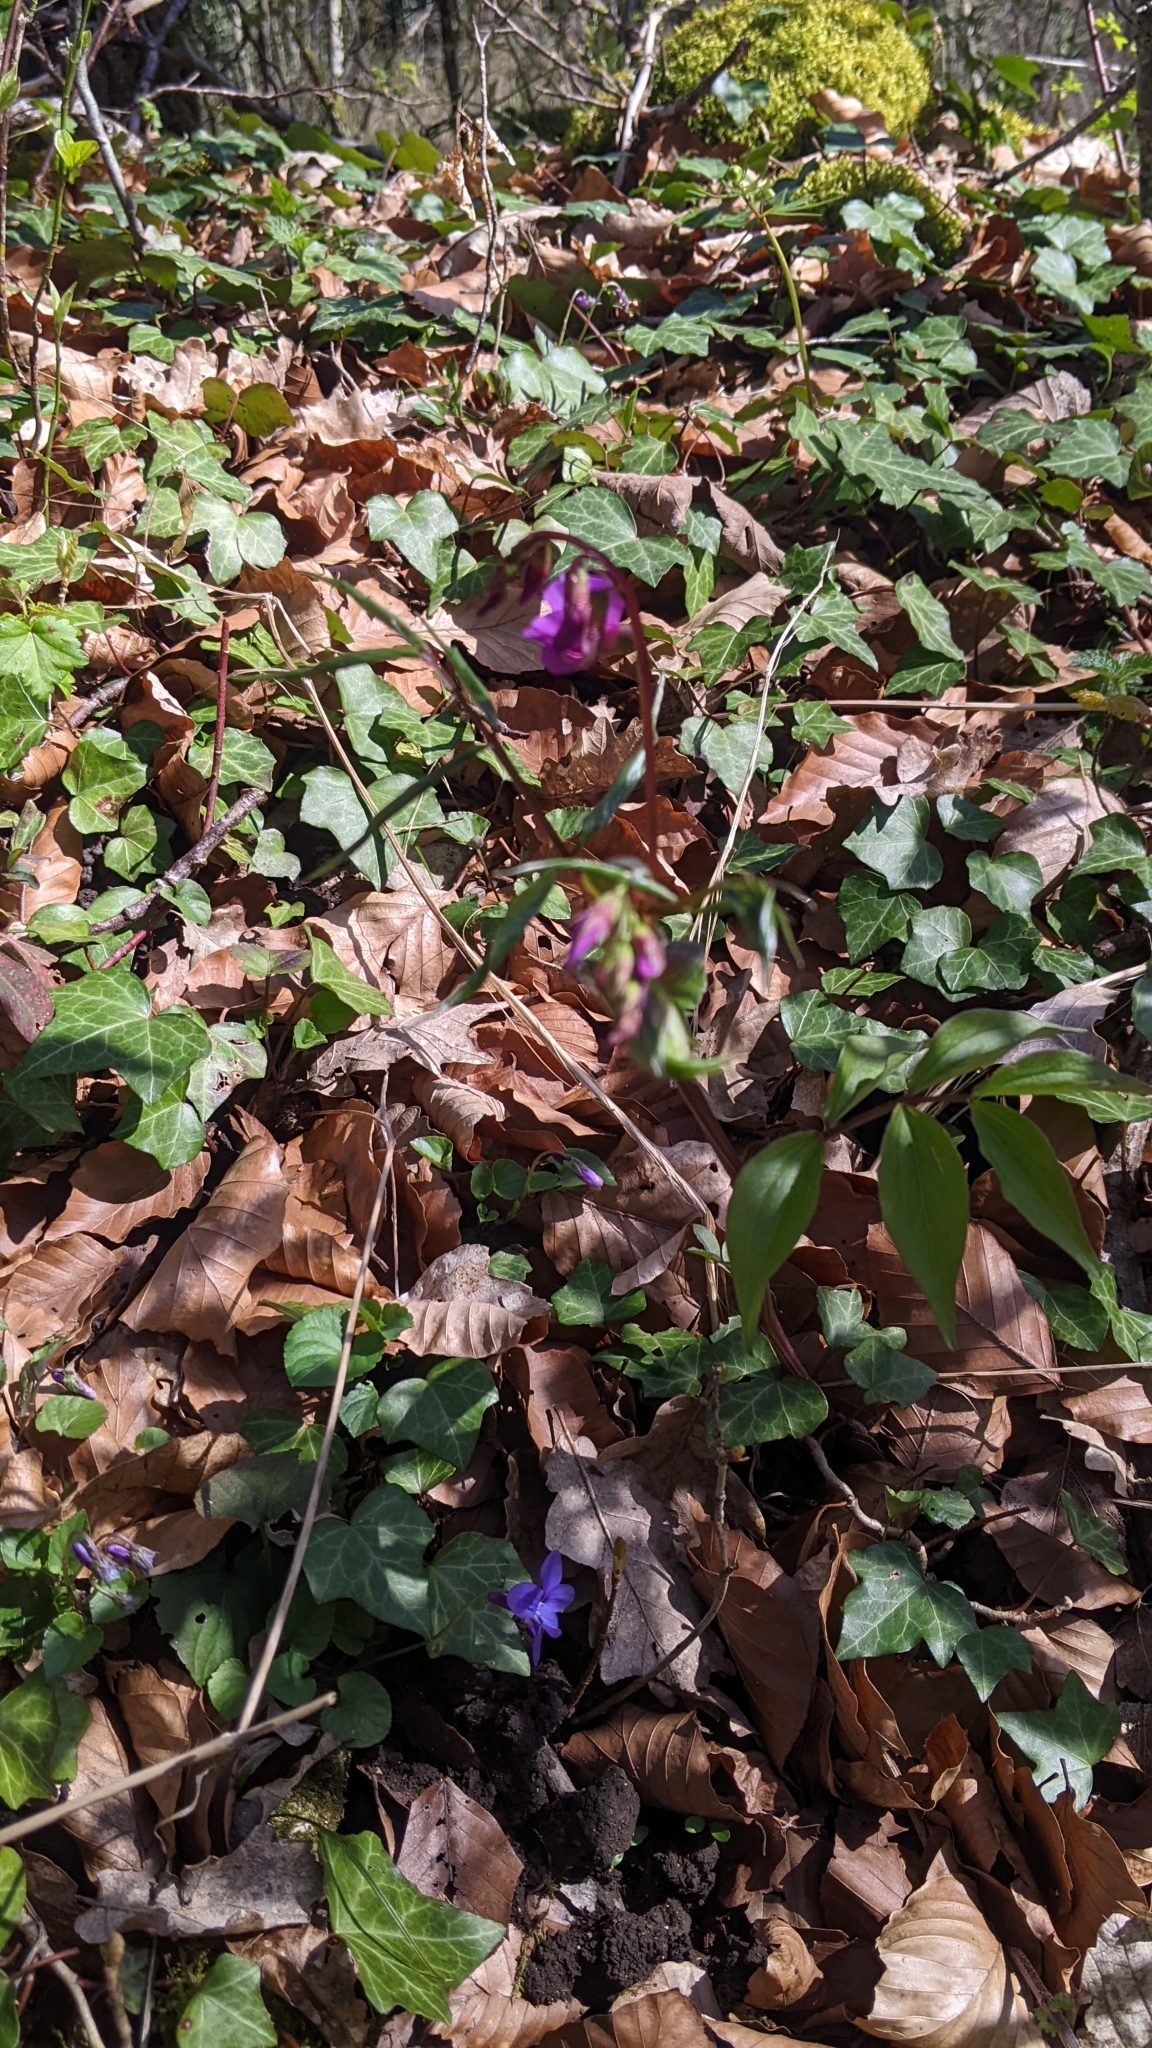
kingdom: Plantae
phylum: Tracheophyta
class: Magnoliopsida
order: Fabales
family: Fabaceae
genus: Lathyrus
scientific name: Lathyrus vernus
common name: Spring pea
